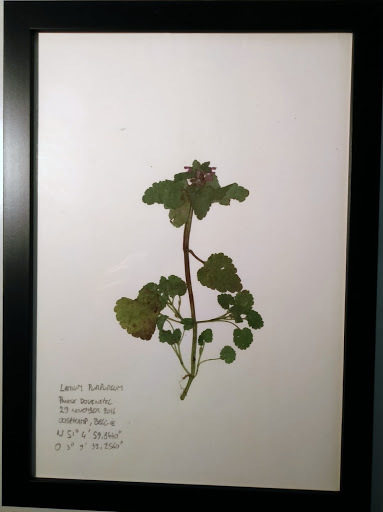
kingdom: Plantae
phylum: Tracheophyta
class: Magnoliopsida
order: Lamiales
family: Lamiaceae
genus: Lamium
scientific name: Lamium purpureum
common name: Red dead-nettle
